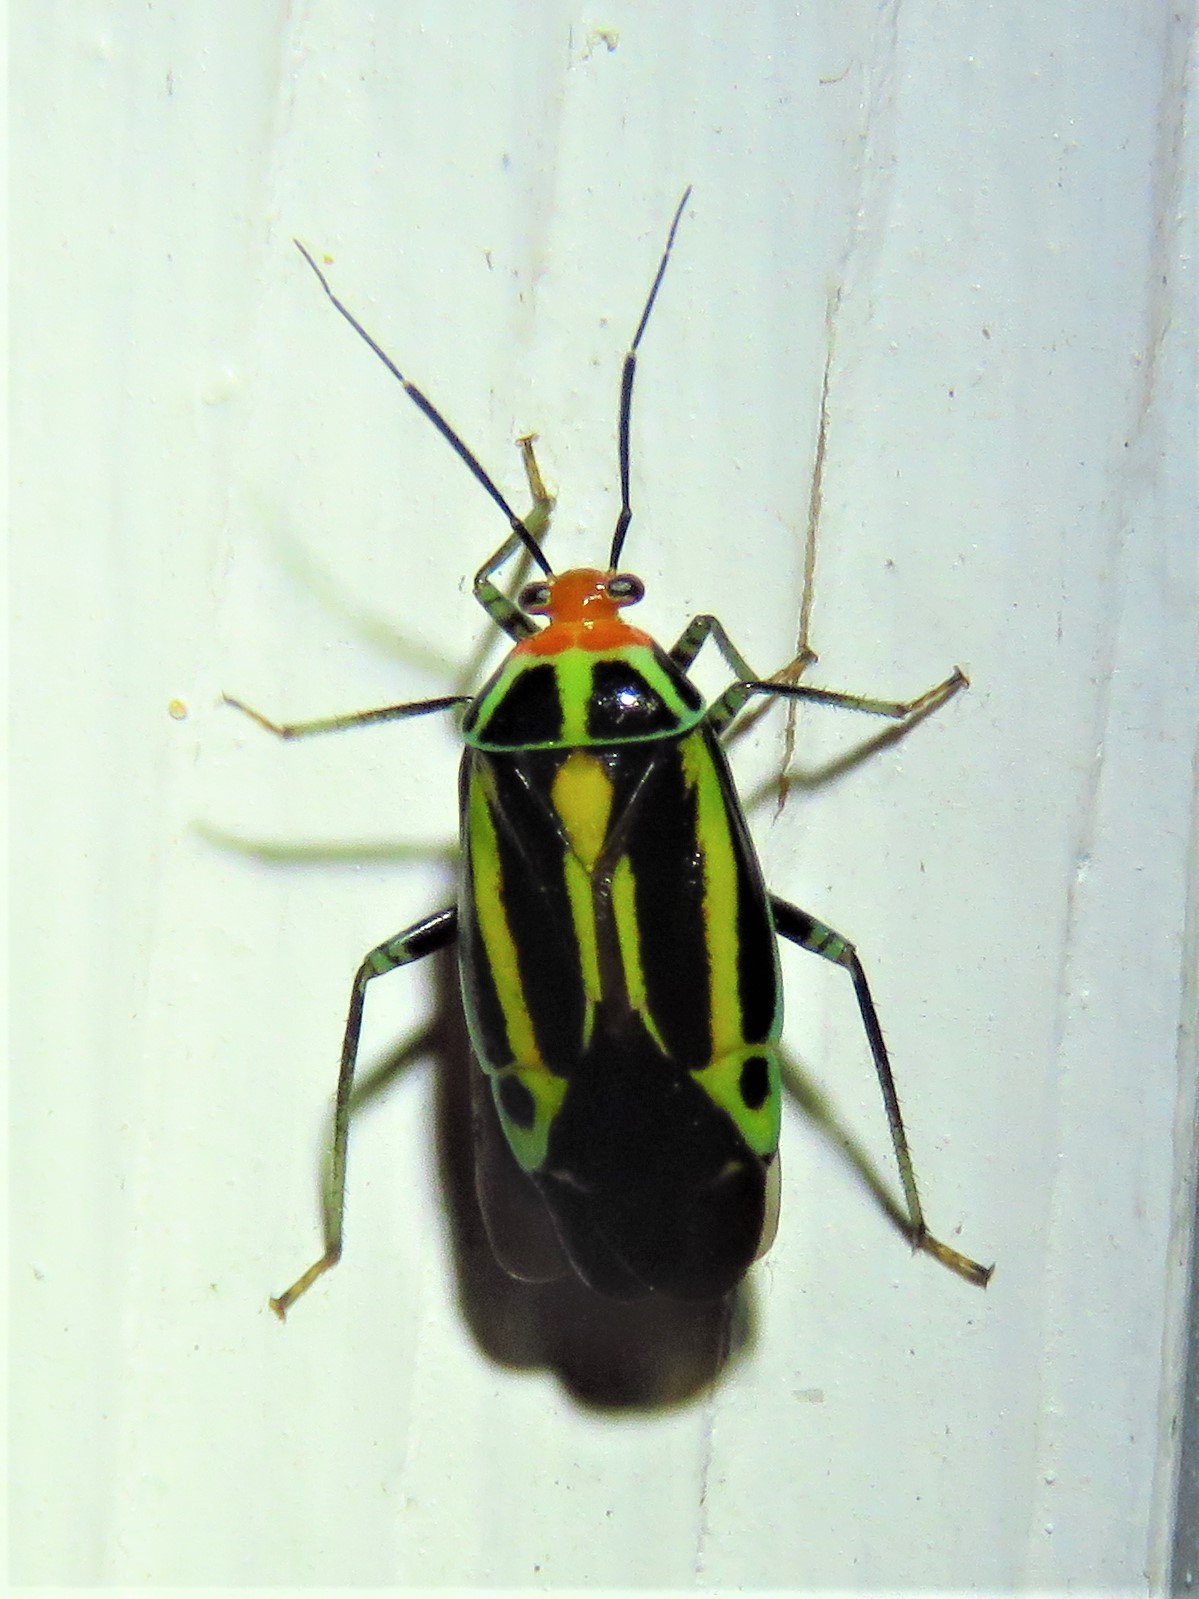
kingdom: Animalia
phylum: Arthropoda
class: Insecta
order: Hemiptera
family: Miridae
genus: Poecilocapsus
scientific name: Poecilocapsus lineatus
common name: Four-lined plant bug
